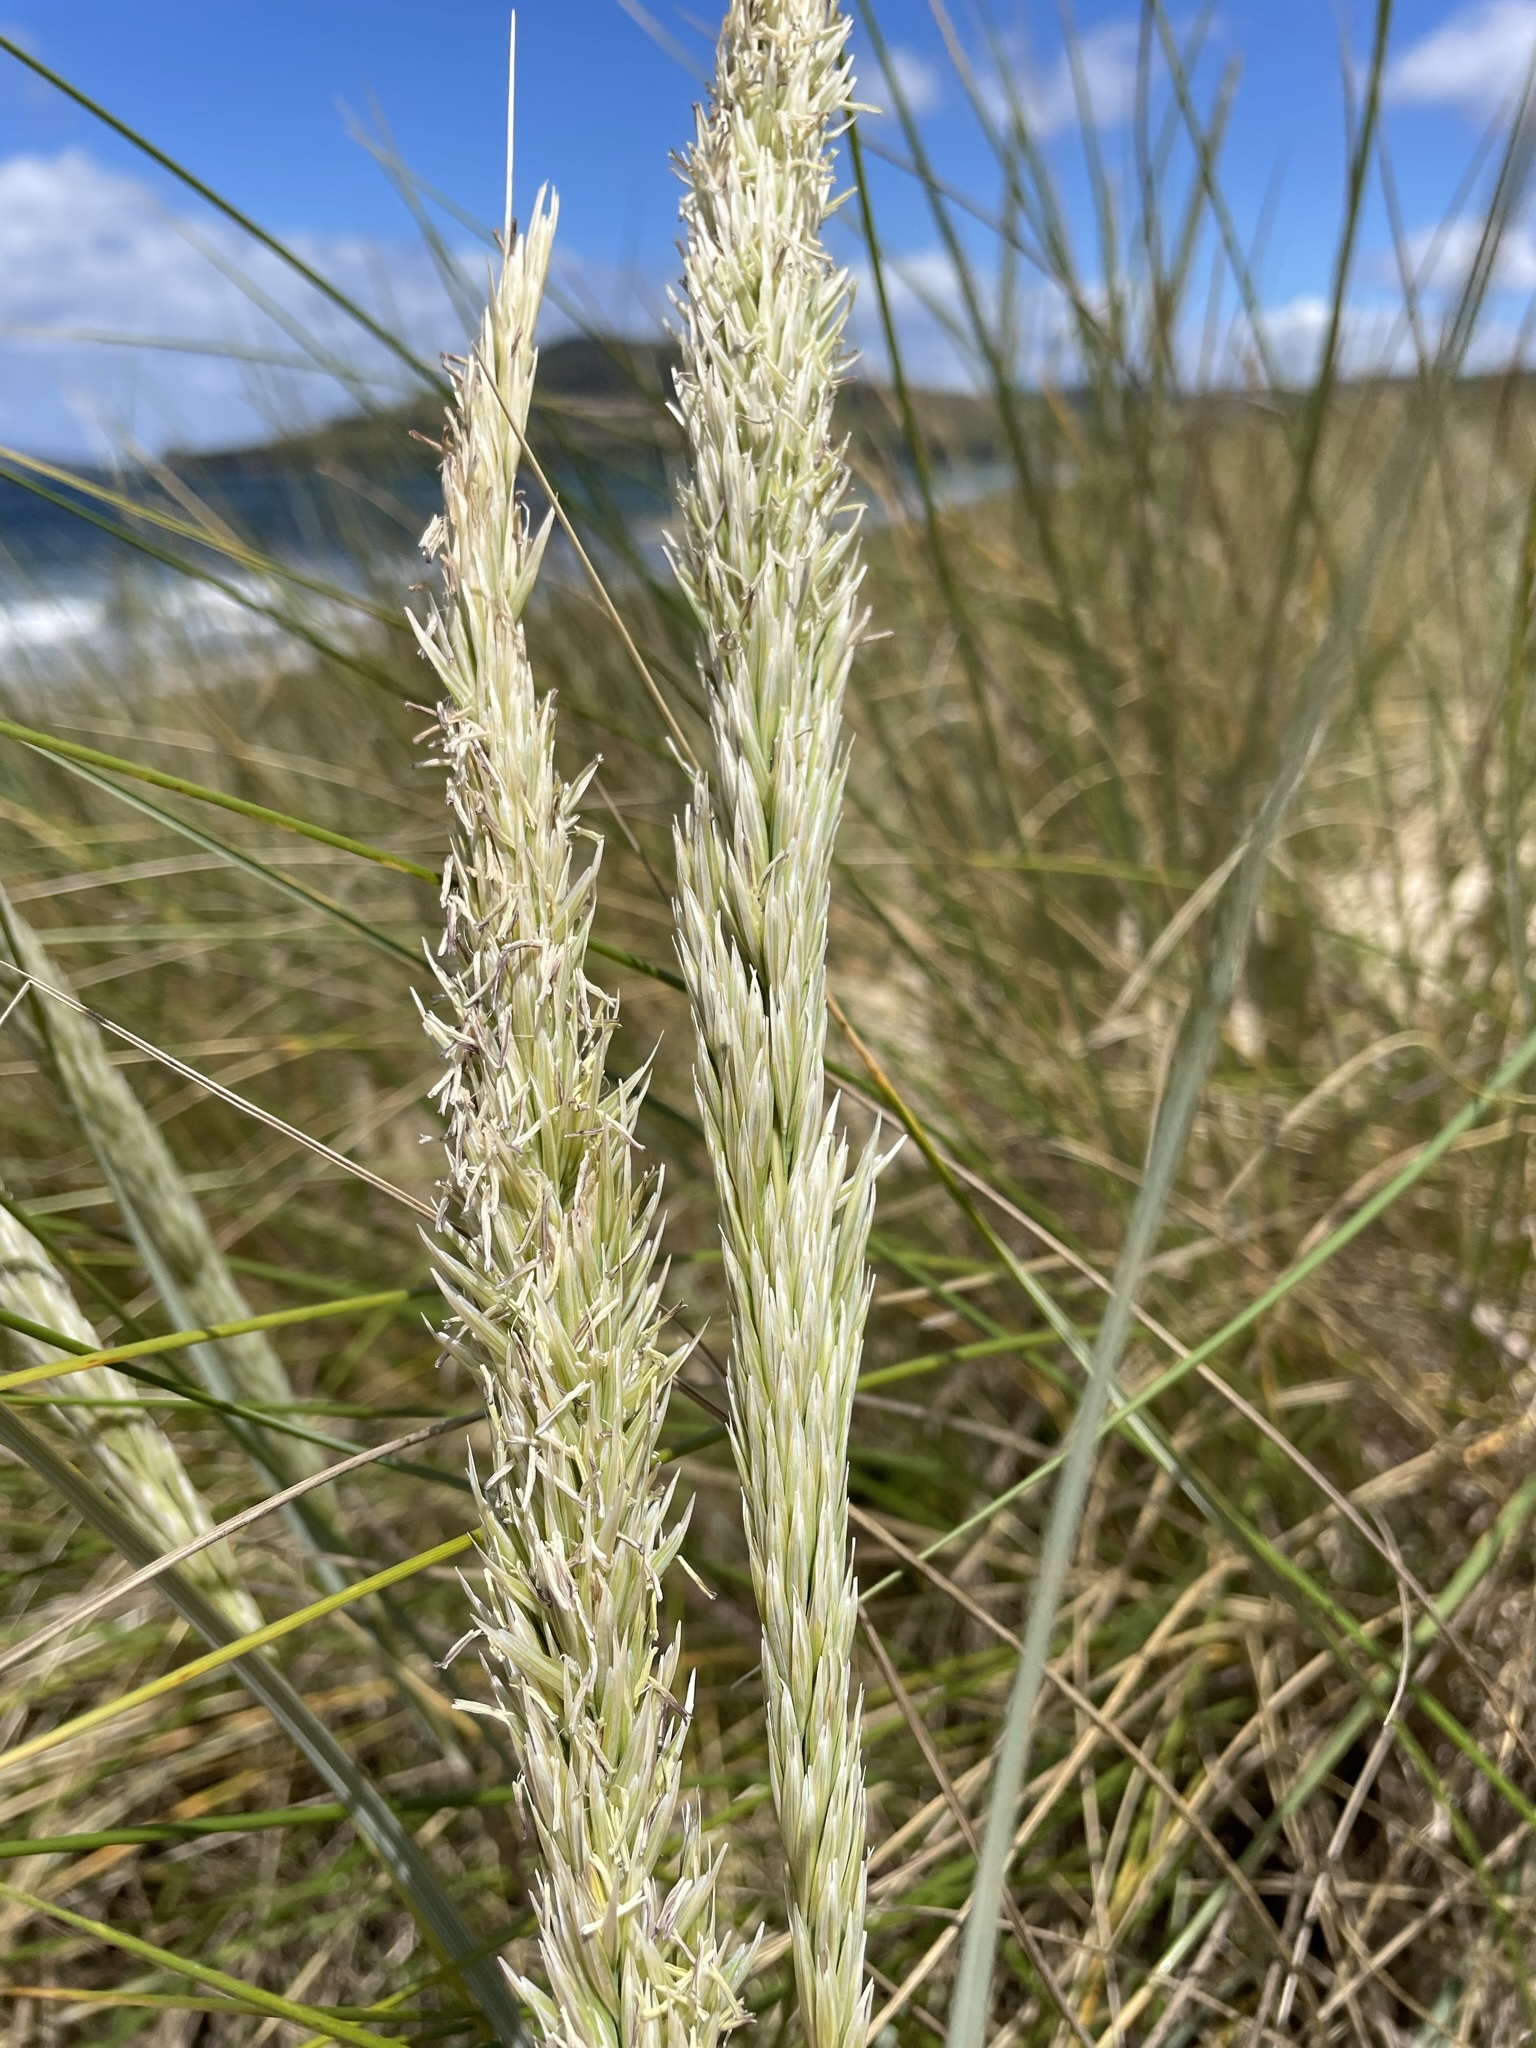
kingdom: Plantae
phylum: Tracheophyta
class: Liliopsida
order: Poales
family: Poaceae
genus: Calamagrostis
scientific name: Calamagrostis arenaria
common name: European beachgrass
